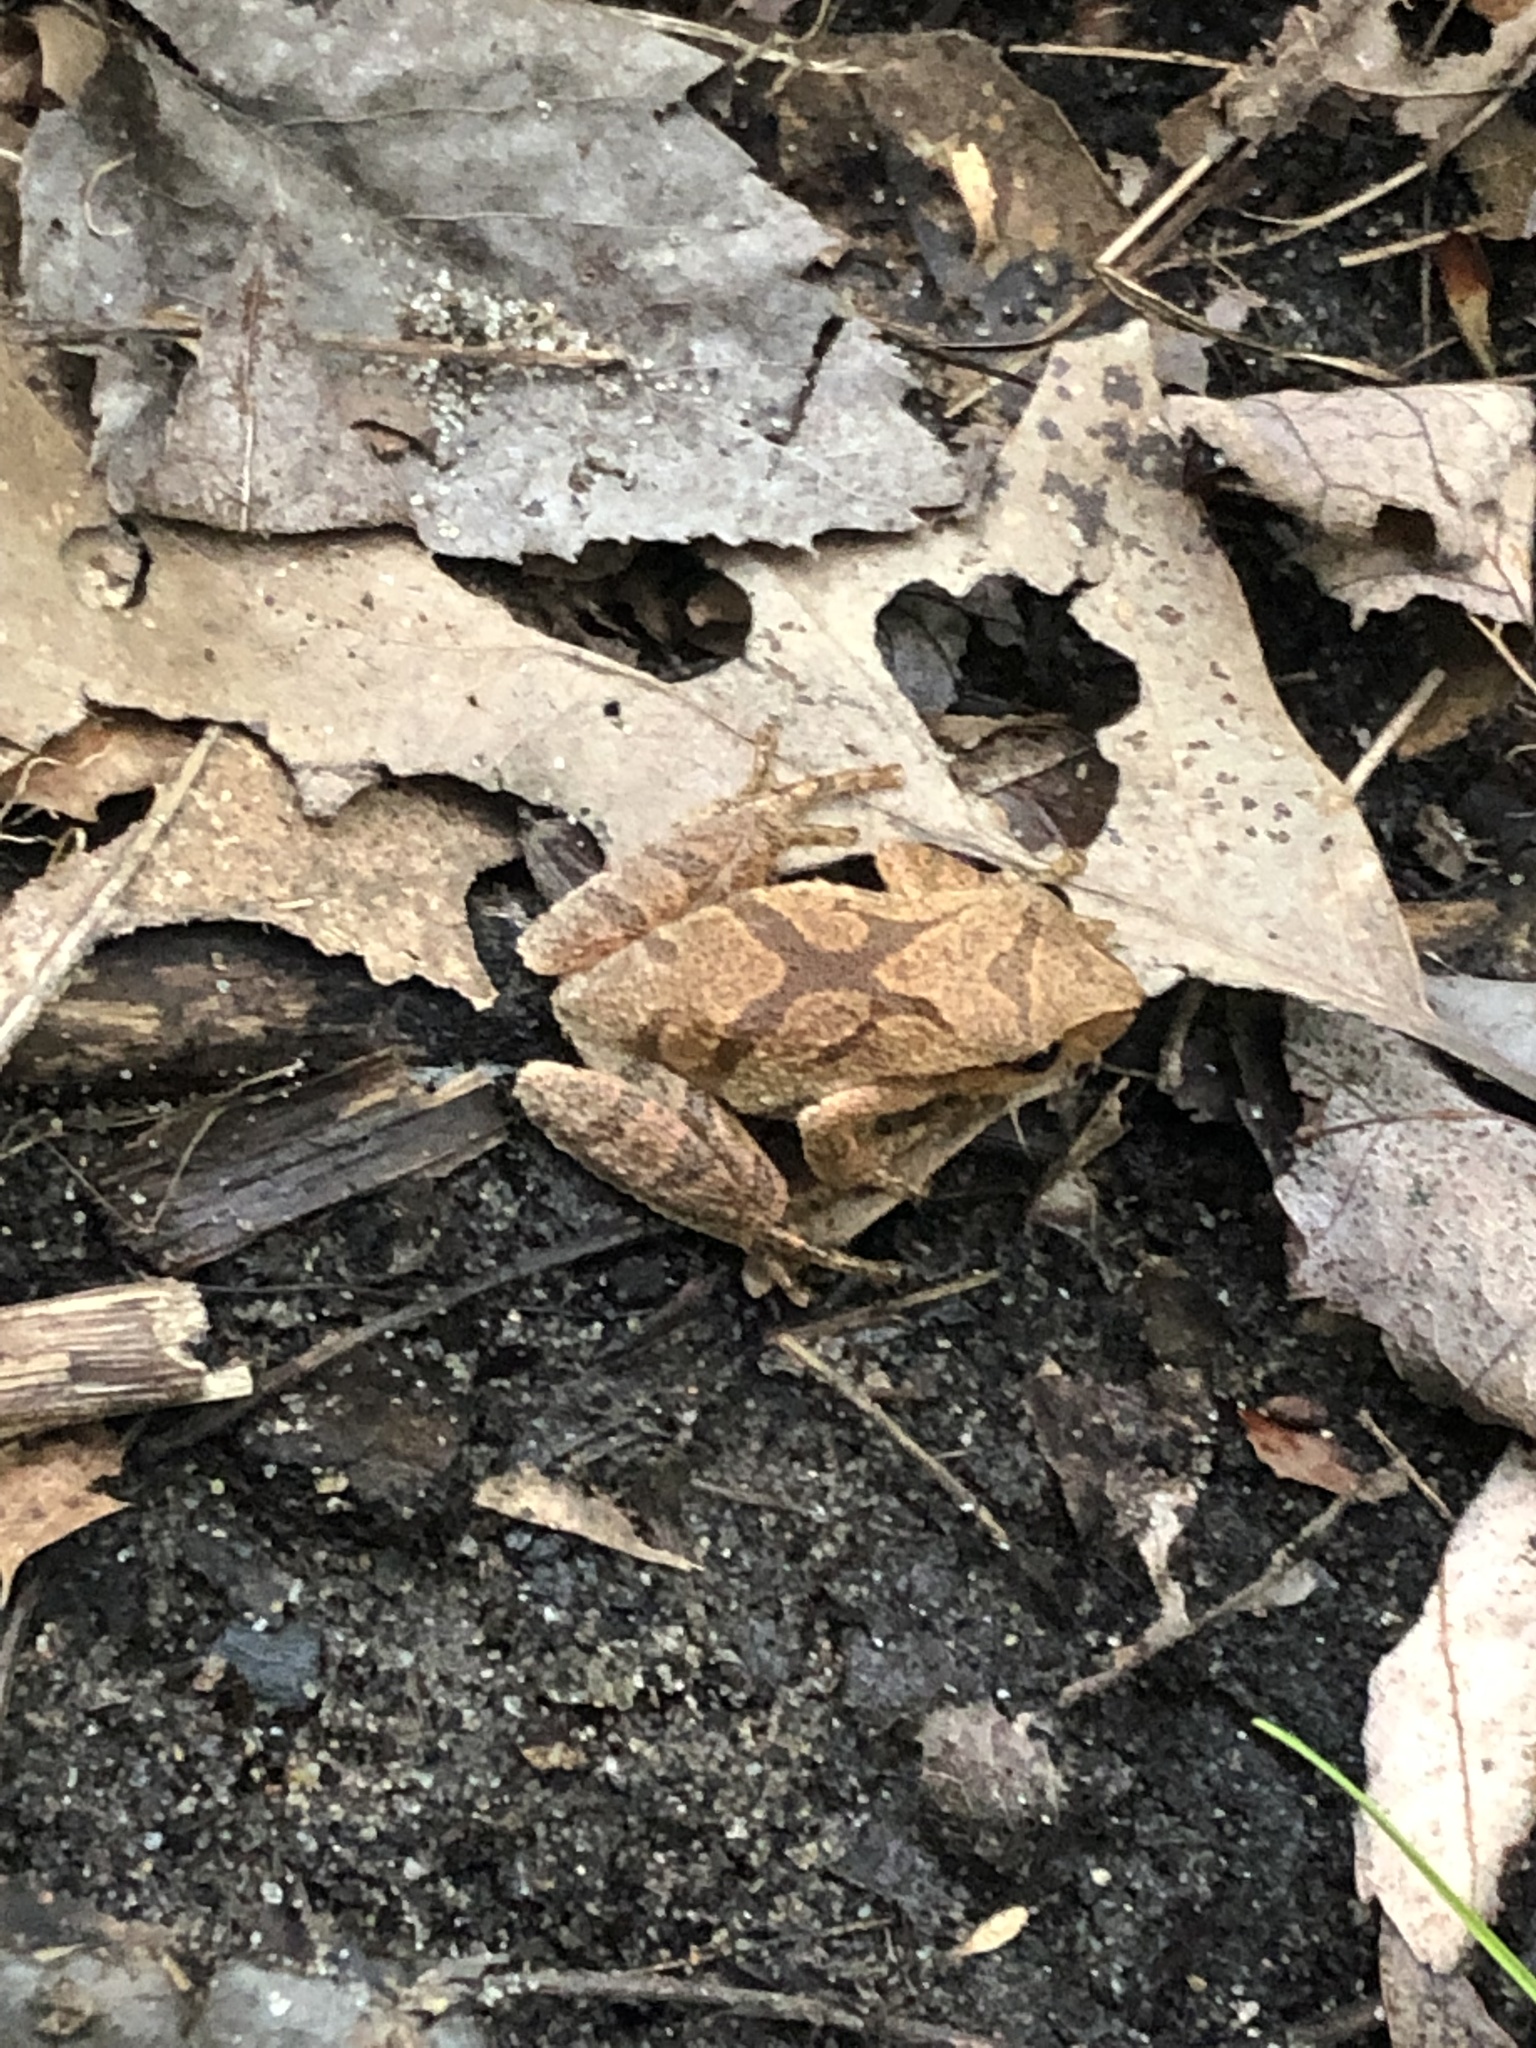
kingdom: Animalia
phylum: Chordata
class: Amphibia
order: Anura
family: Hylidae
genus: Pseudacris
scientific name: Pseudacris crucifer
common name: Spring peeper
